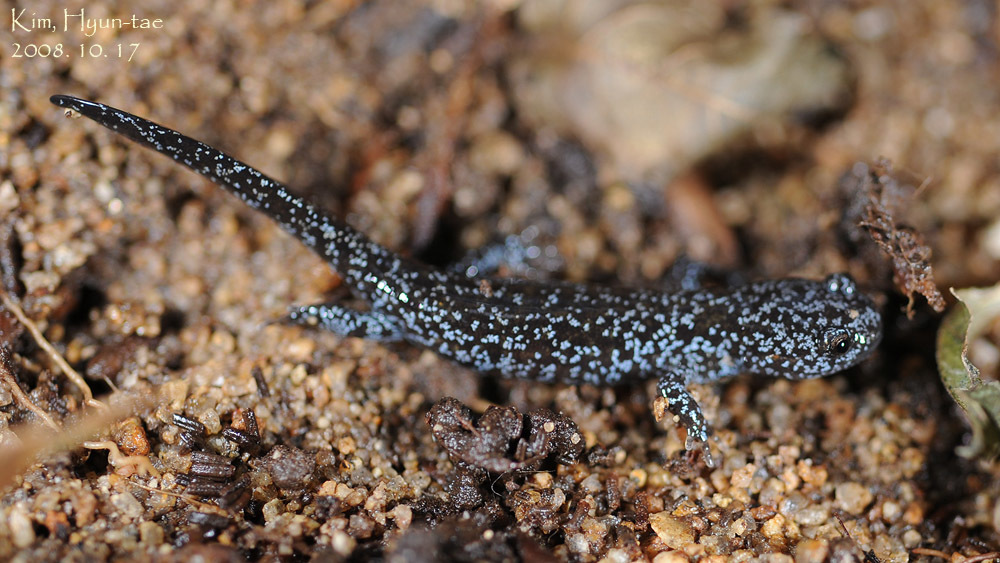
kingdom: Animalia
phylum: Chordata
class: Amphibia
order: Caudata
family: Hynobiidae
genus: Hynobius
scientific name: Hynobius leechii
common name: Gensan salamander
